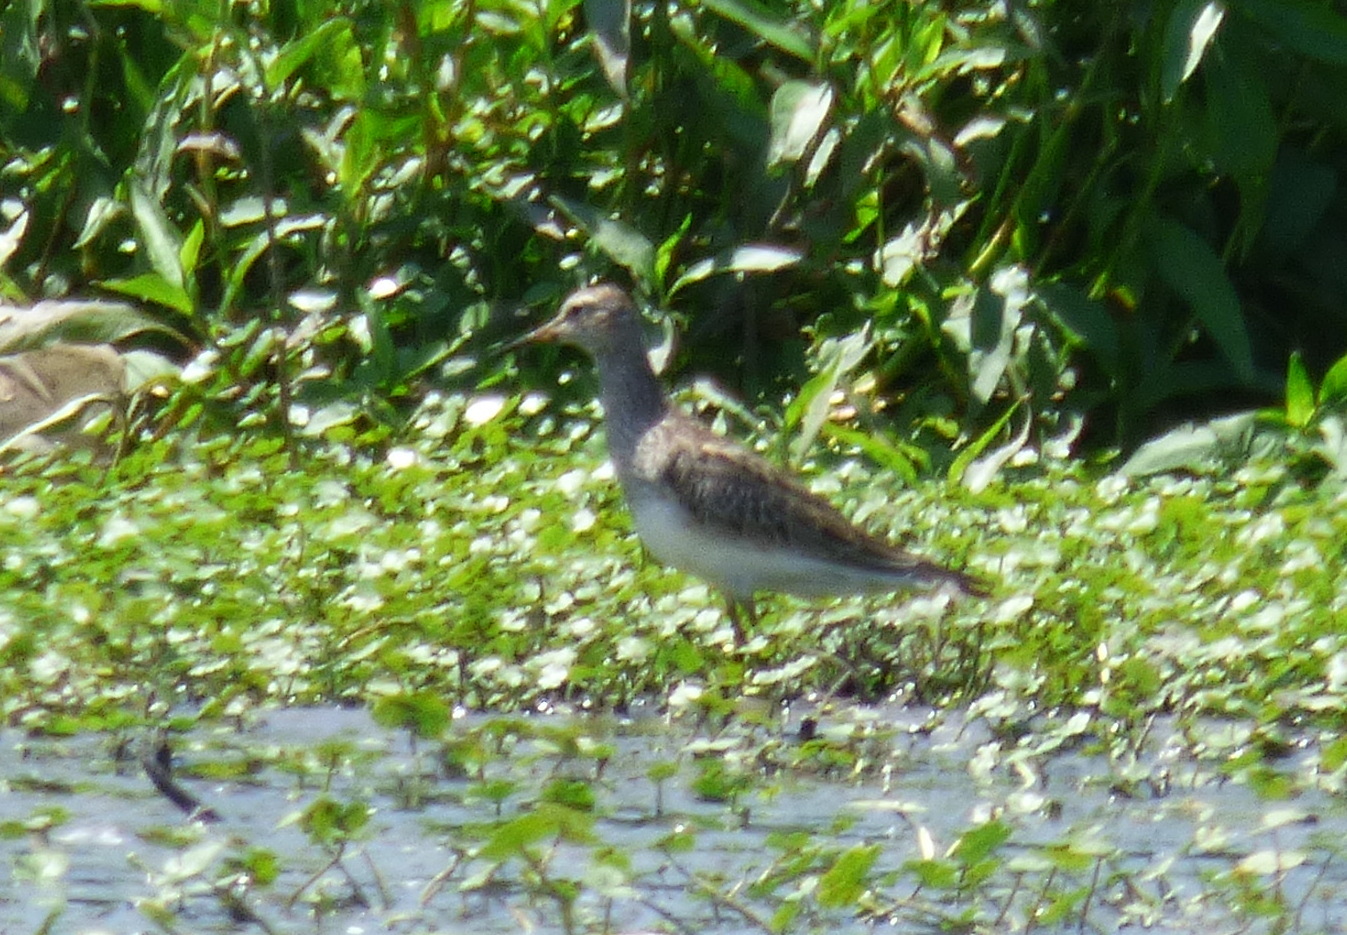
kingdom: Animalia
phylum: Chordata
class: Aves
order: Charadriiformes
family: Scolopacidae
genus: Calidris
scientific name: Calidris melanotos
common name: Pectoral sandpiper
